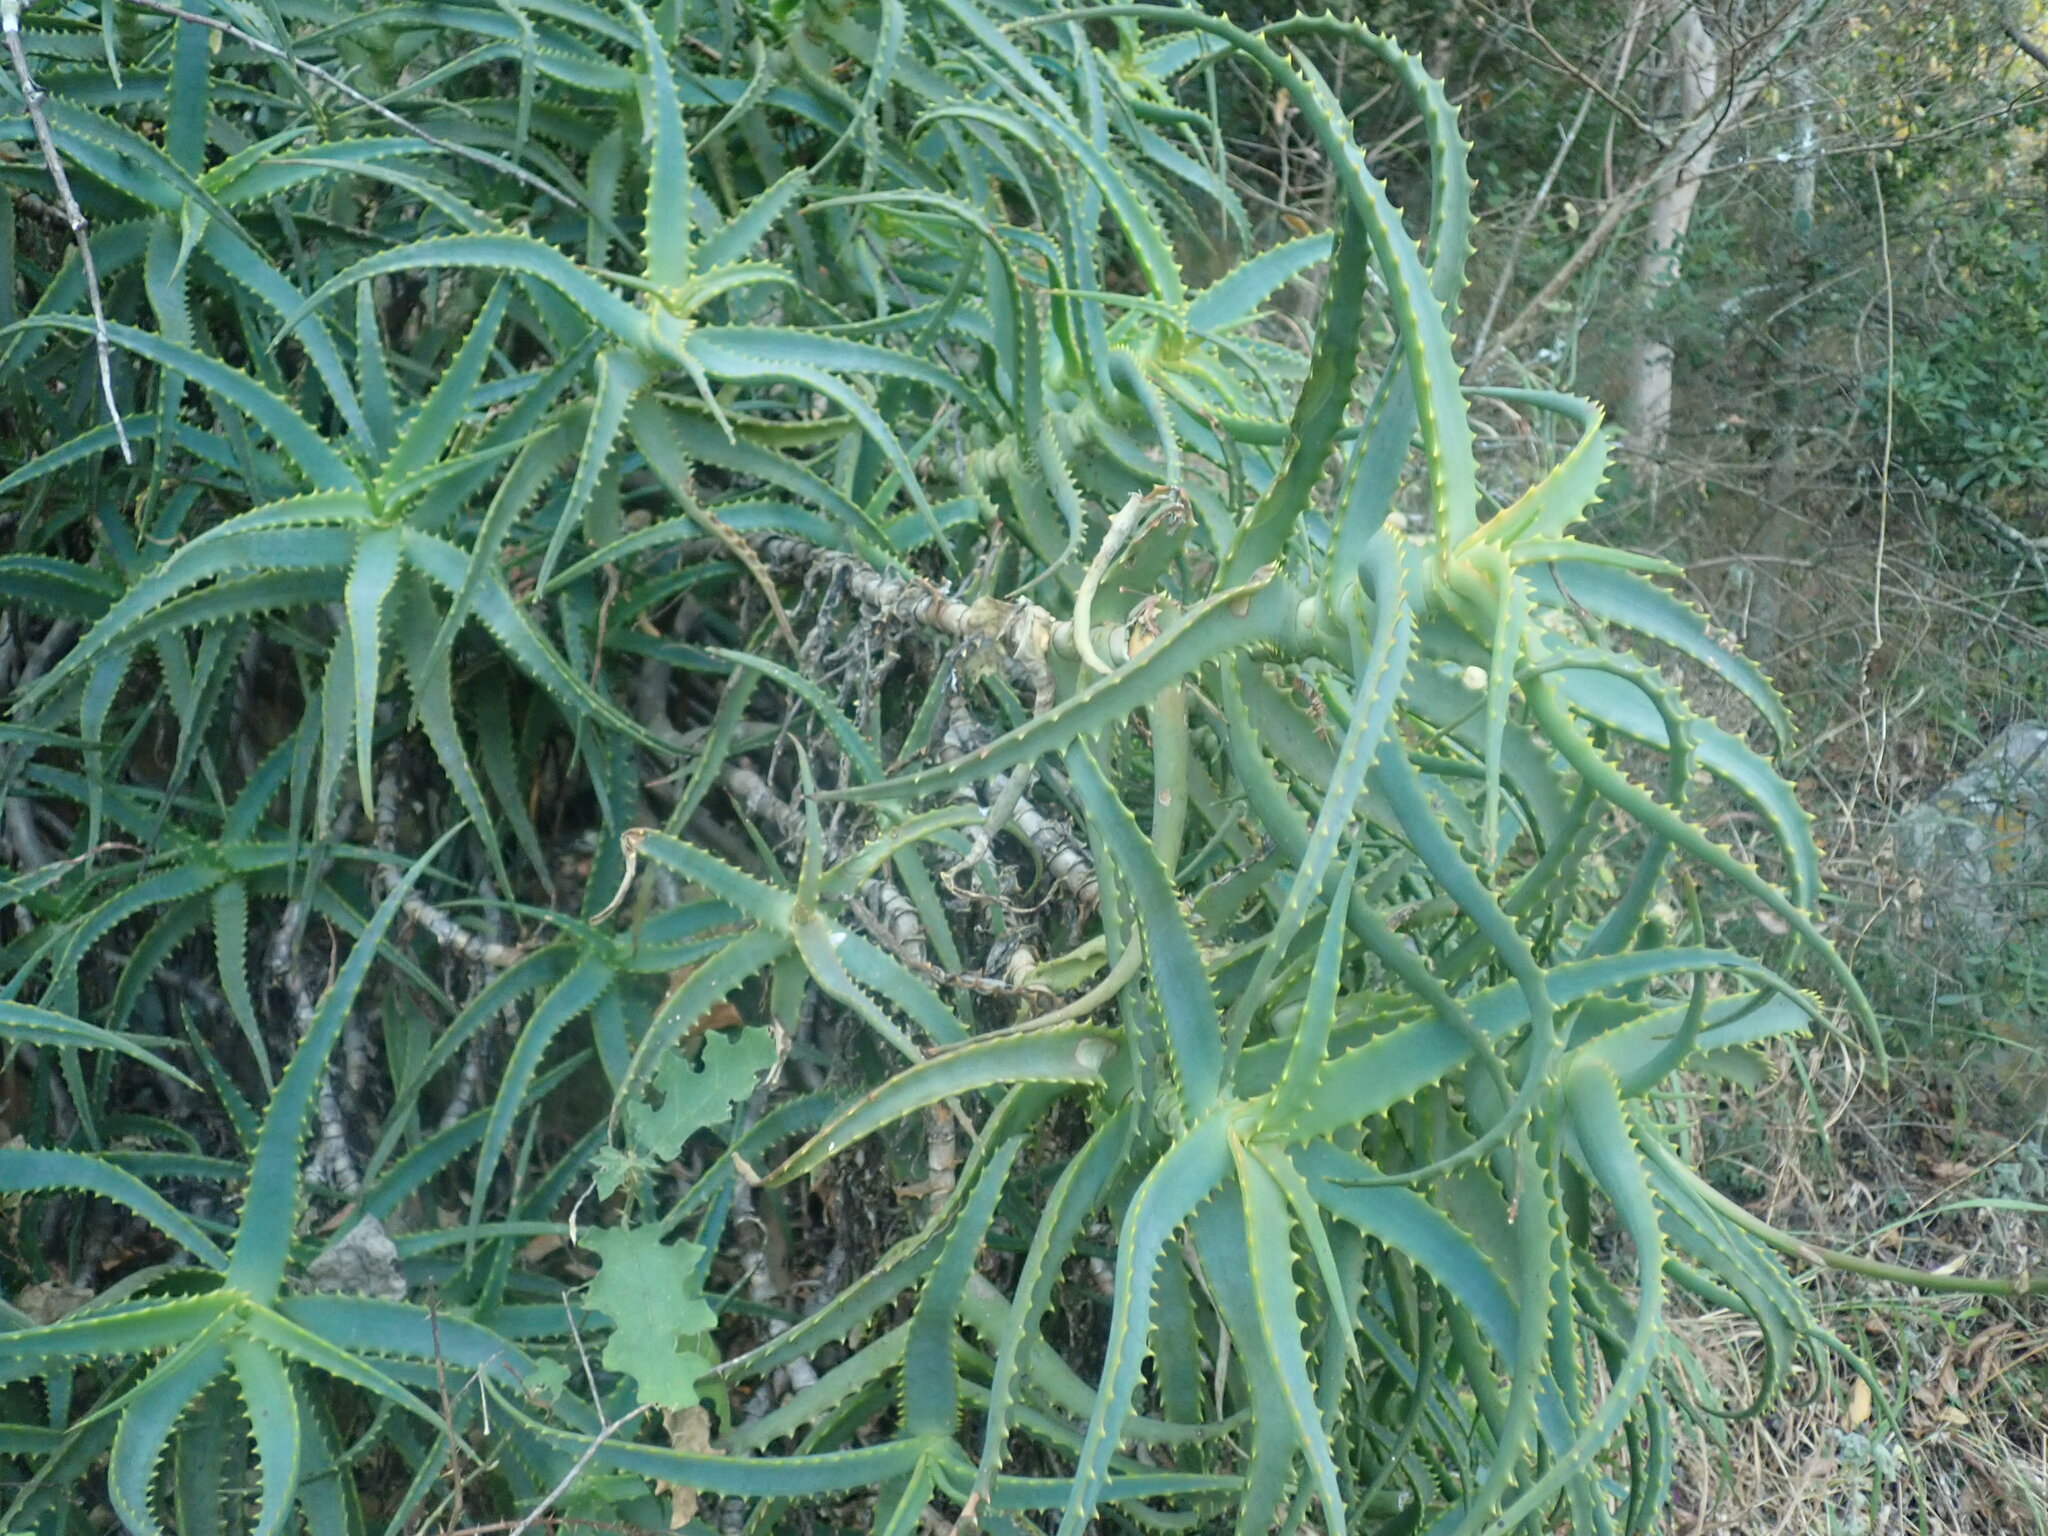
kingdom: Plantae
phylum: Tracheophyta
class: Liliopsida
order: Asparagales
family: Asphodelaceae
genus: Aloe
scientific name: Aloe arborescens
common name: Candelabra aloe
